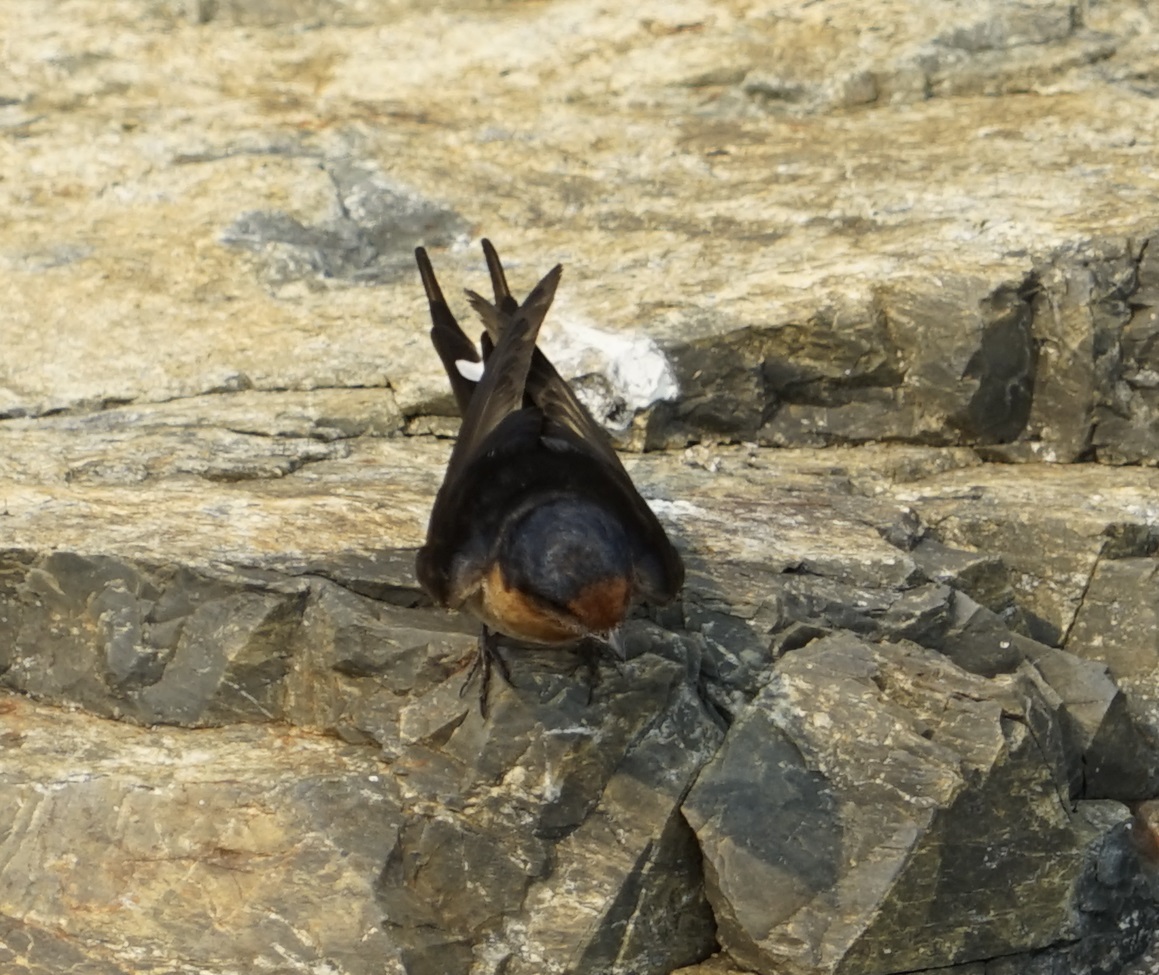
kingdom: Animalia
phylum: Chordata
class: Aves
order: Passeriformes
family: Hirundinidae
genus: Hirundo
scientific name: Hirundo neoxena
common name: Welcome swallow
